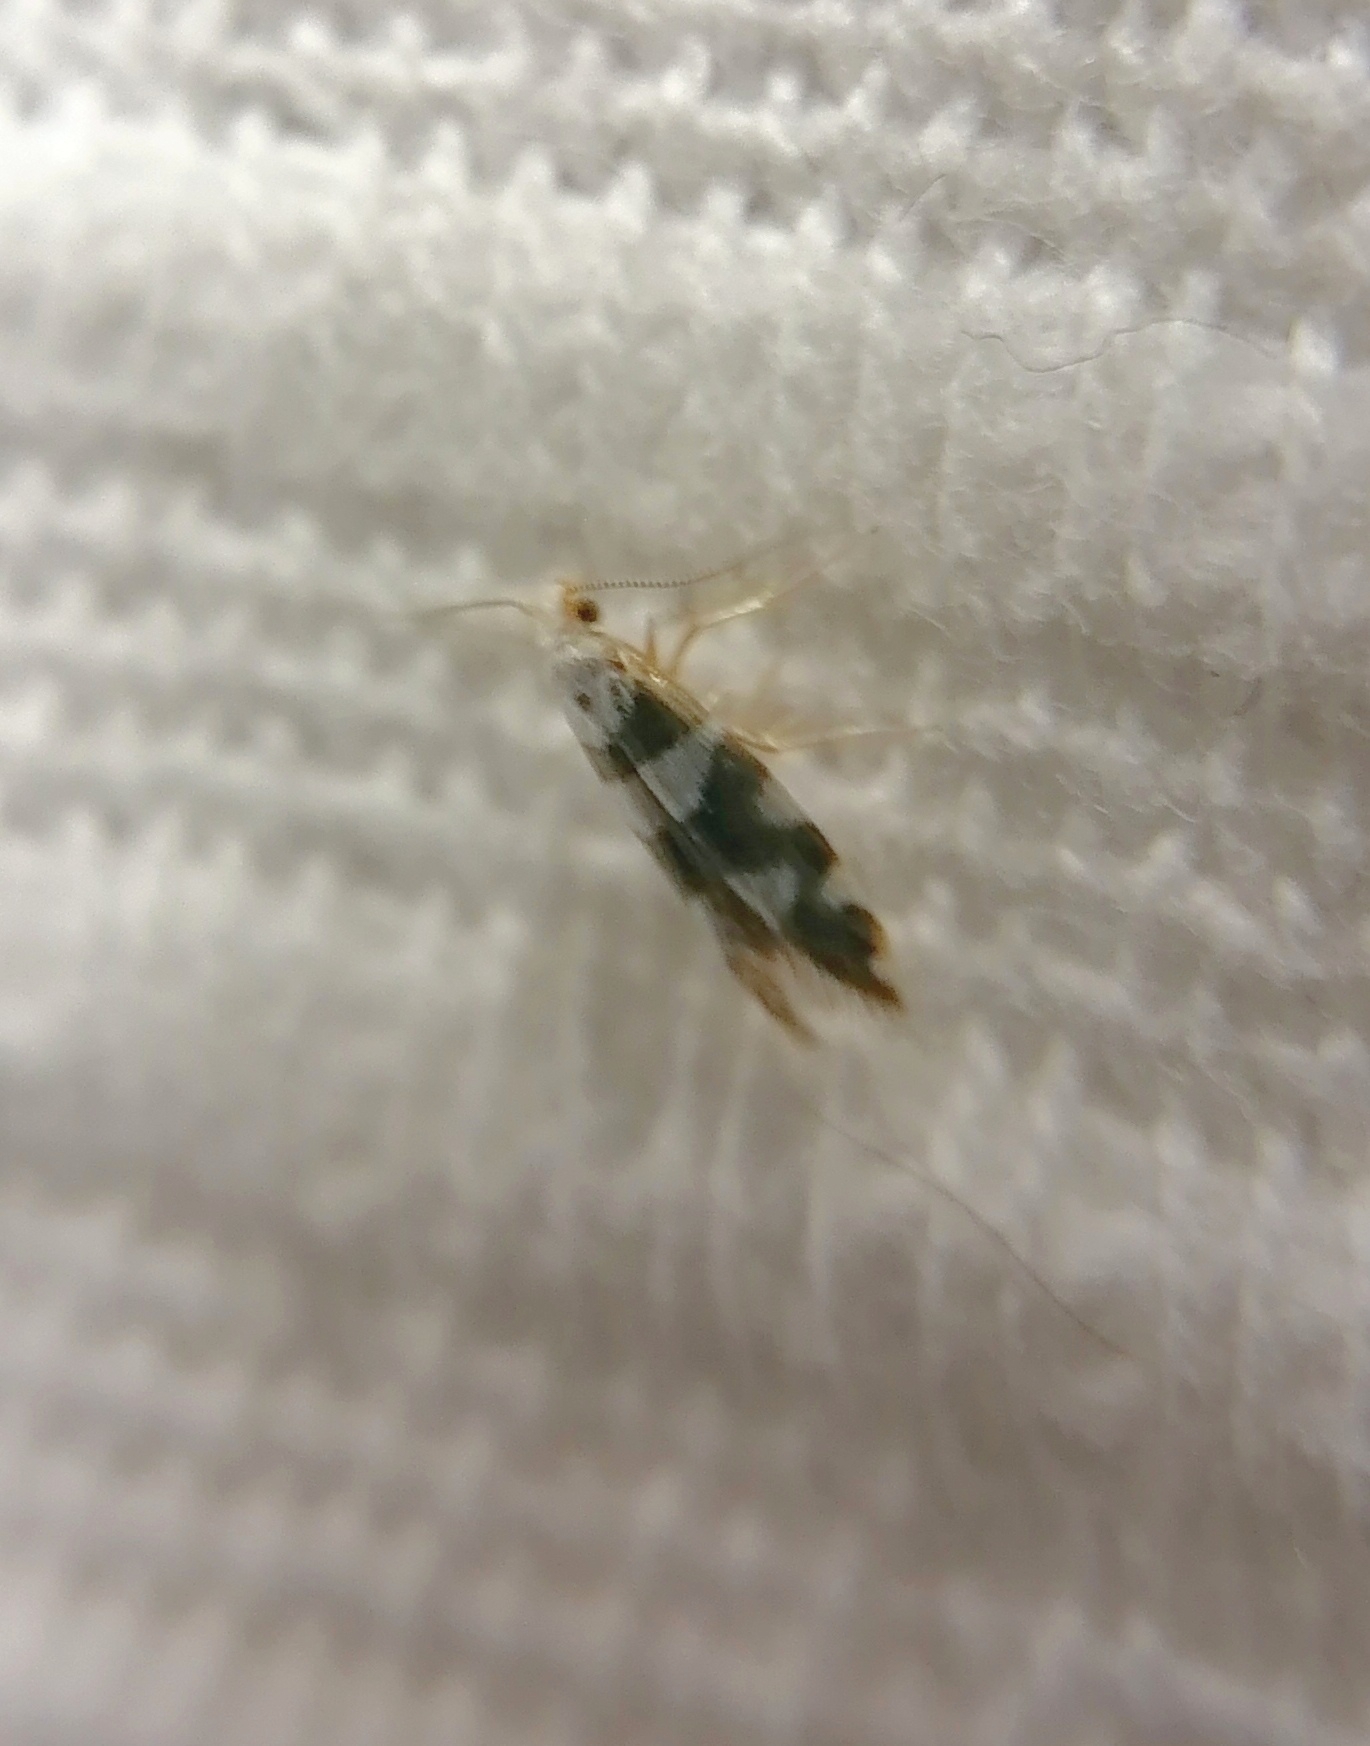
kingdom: Animalia
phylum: Arthropoda
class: Insecta
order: Lepidoptera
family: Argyresthiidae
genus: Argyresthia
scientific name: Argyresthia brockeella
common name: Gold-ribbon argent
